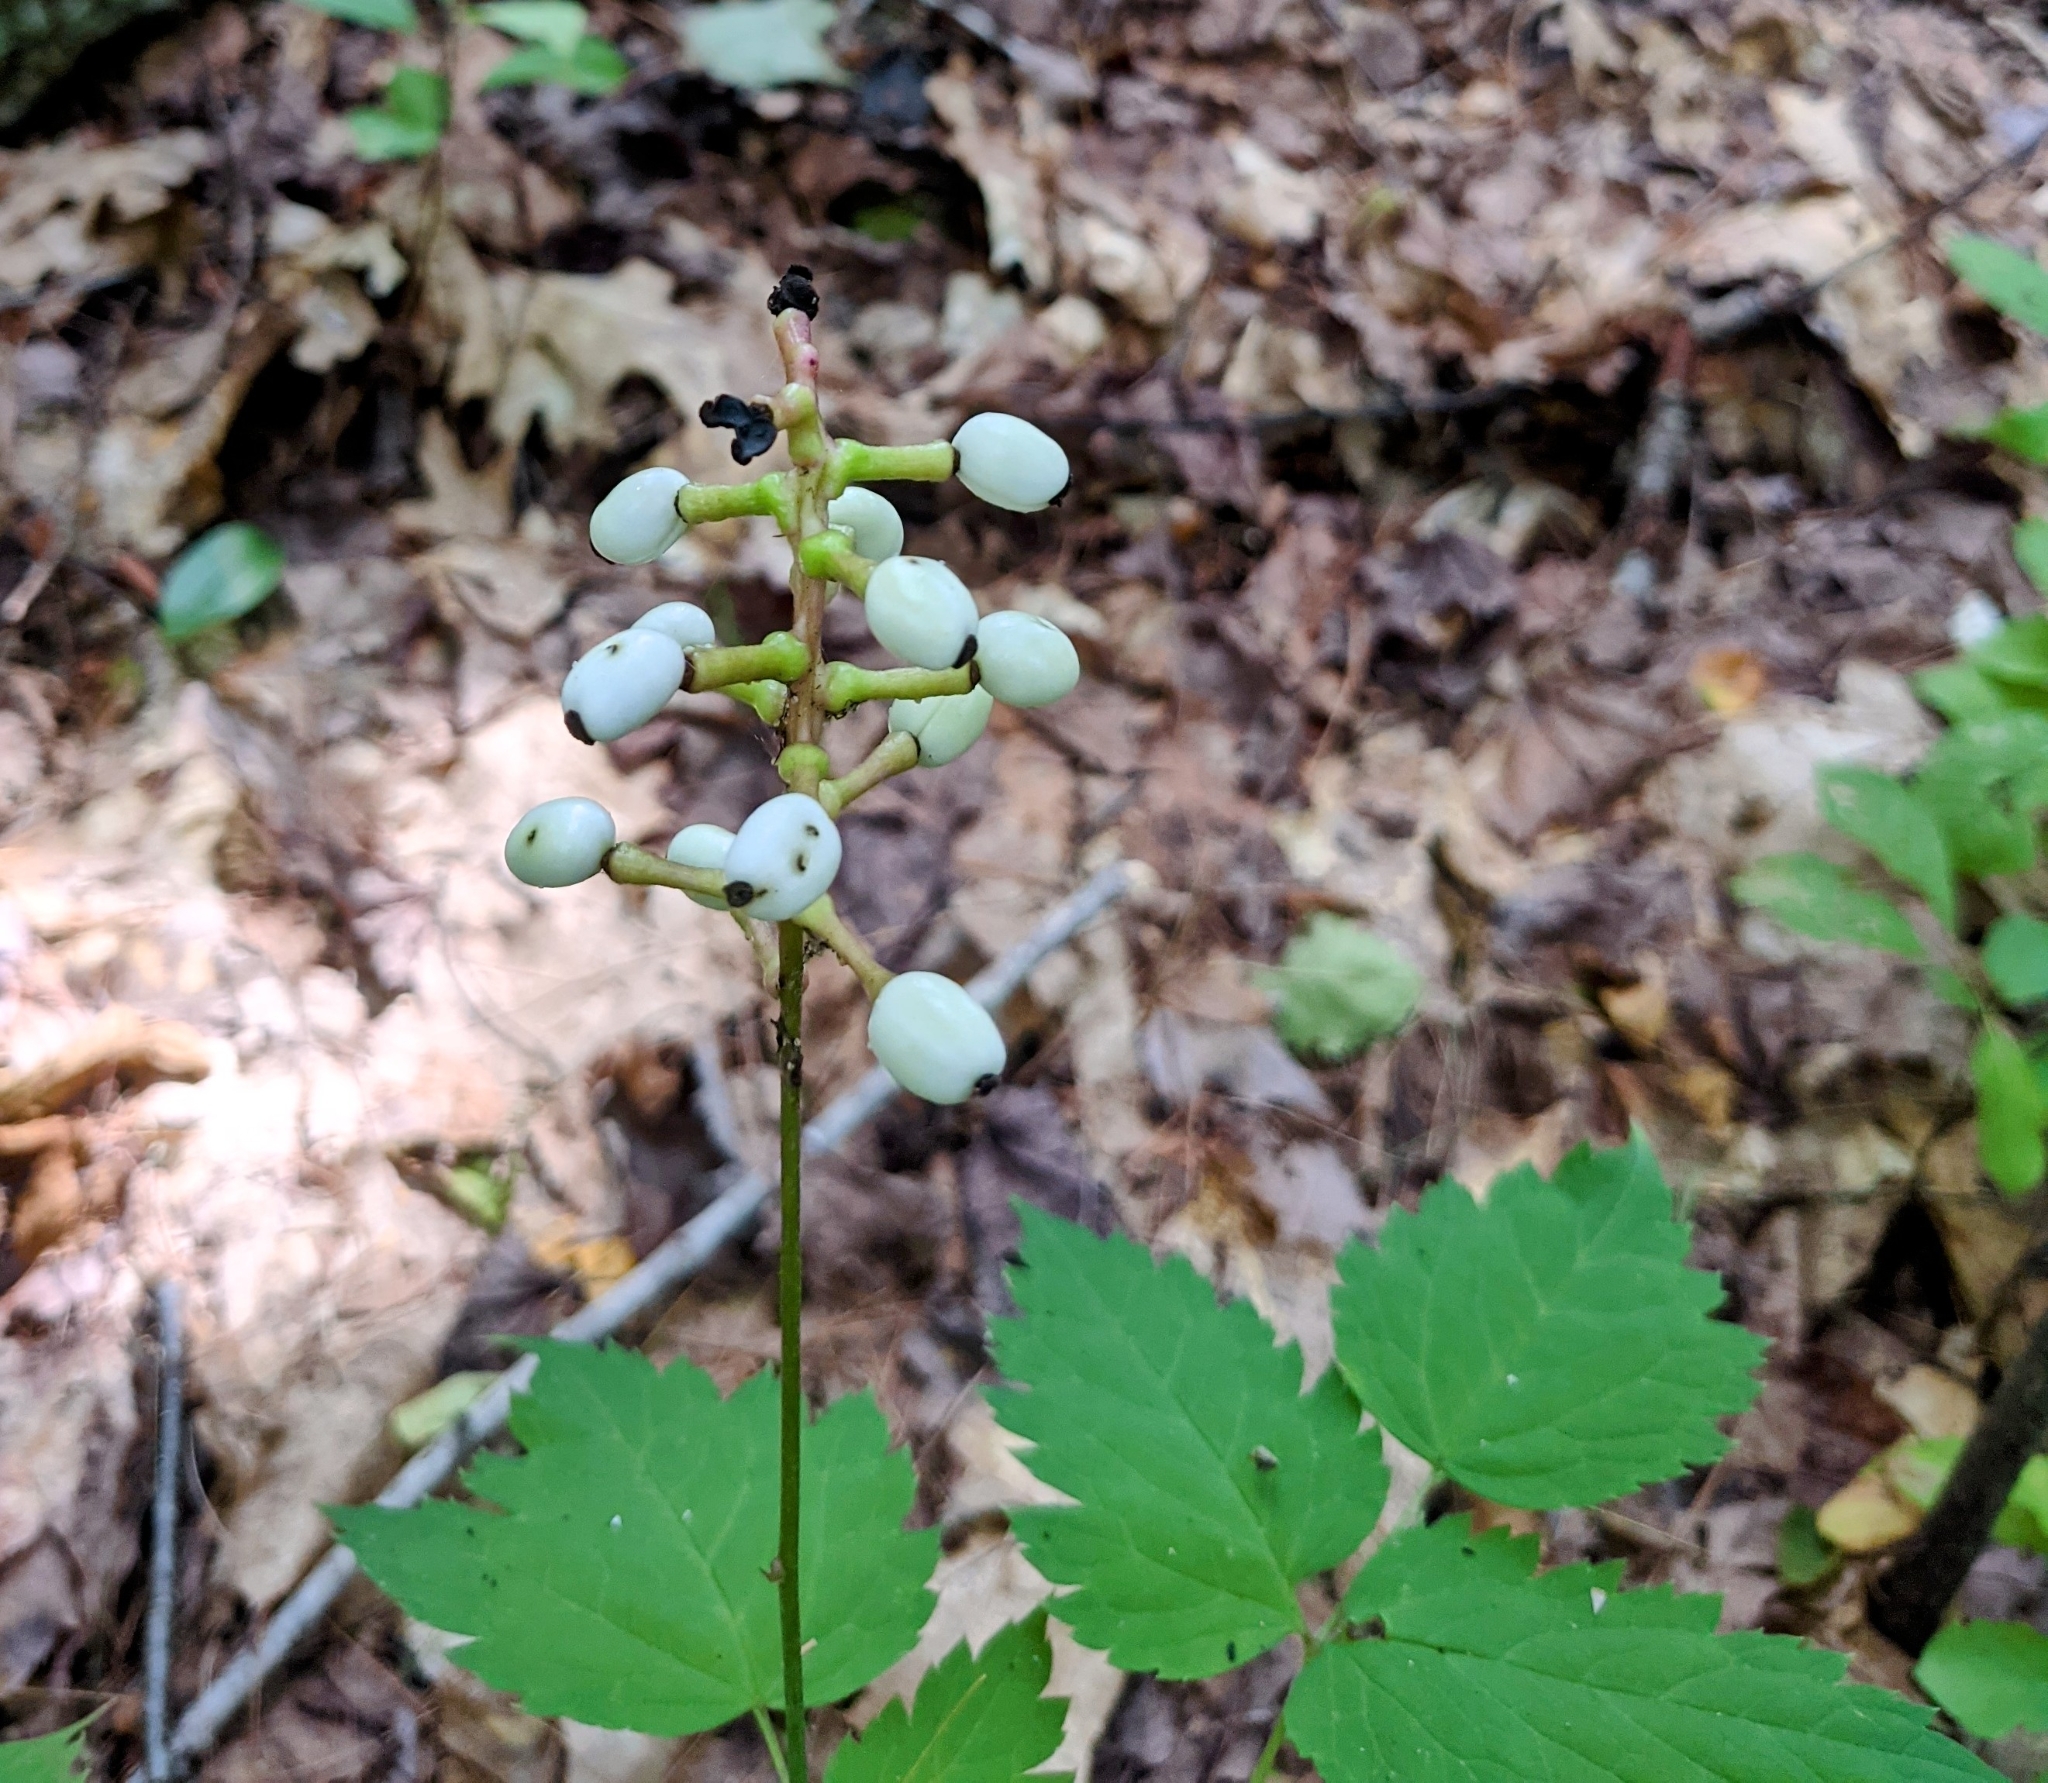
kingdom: Plantae
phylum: Tracheophyta
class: Magnoliopsida
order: Ranunculales
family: Ranunculaceae
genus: Actaea
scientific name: Actaea pachypoda
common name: Doll's-eyes
